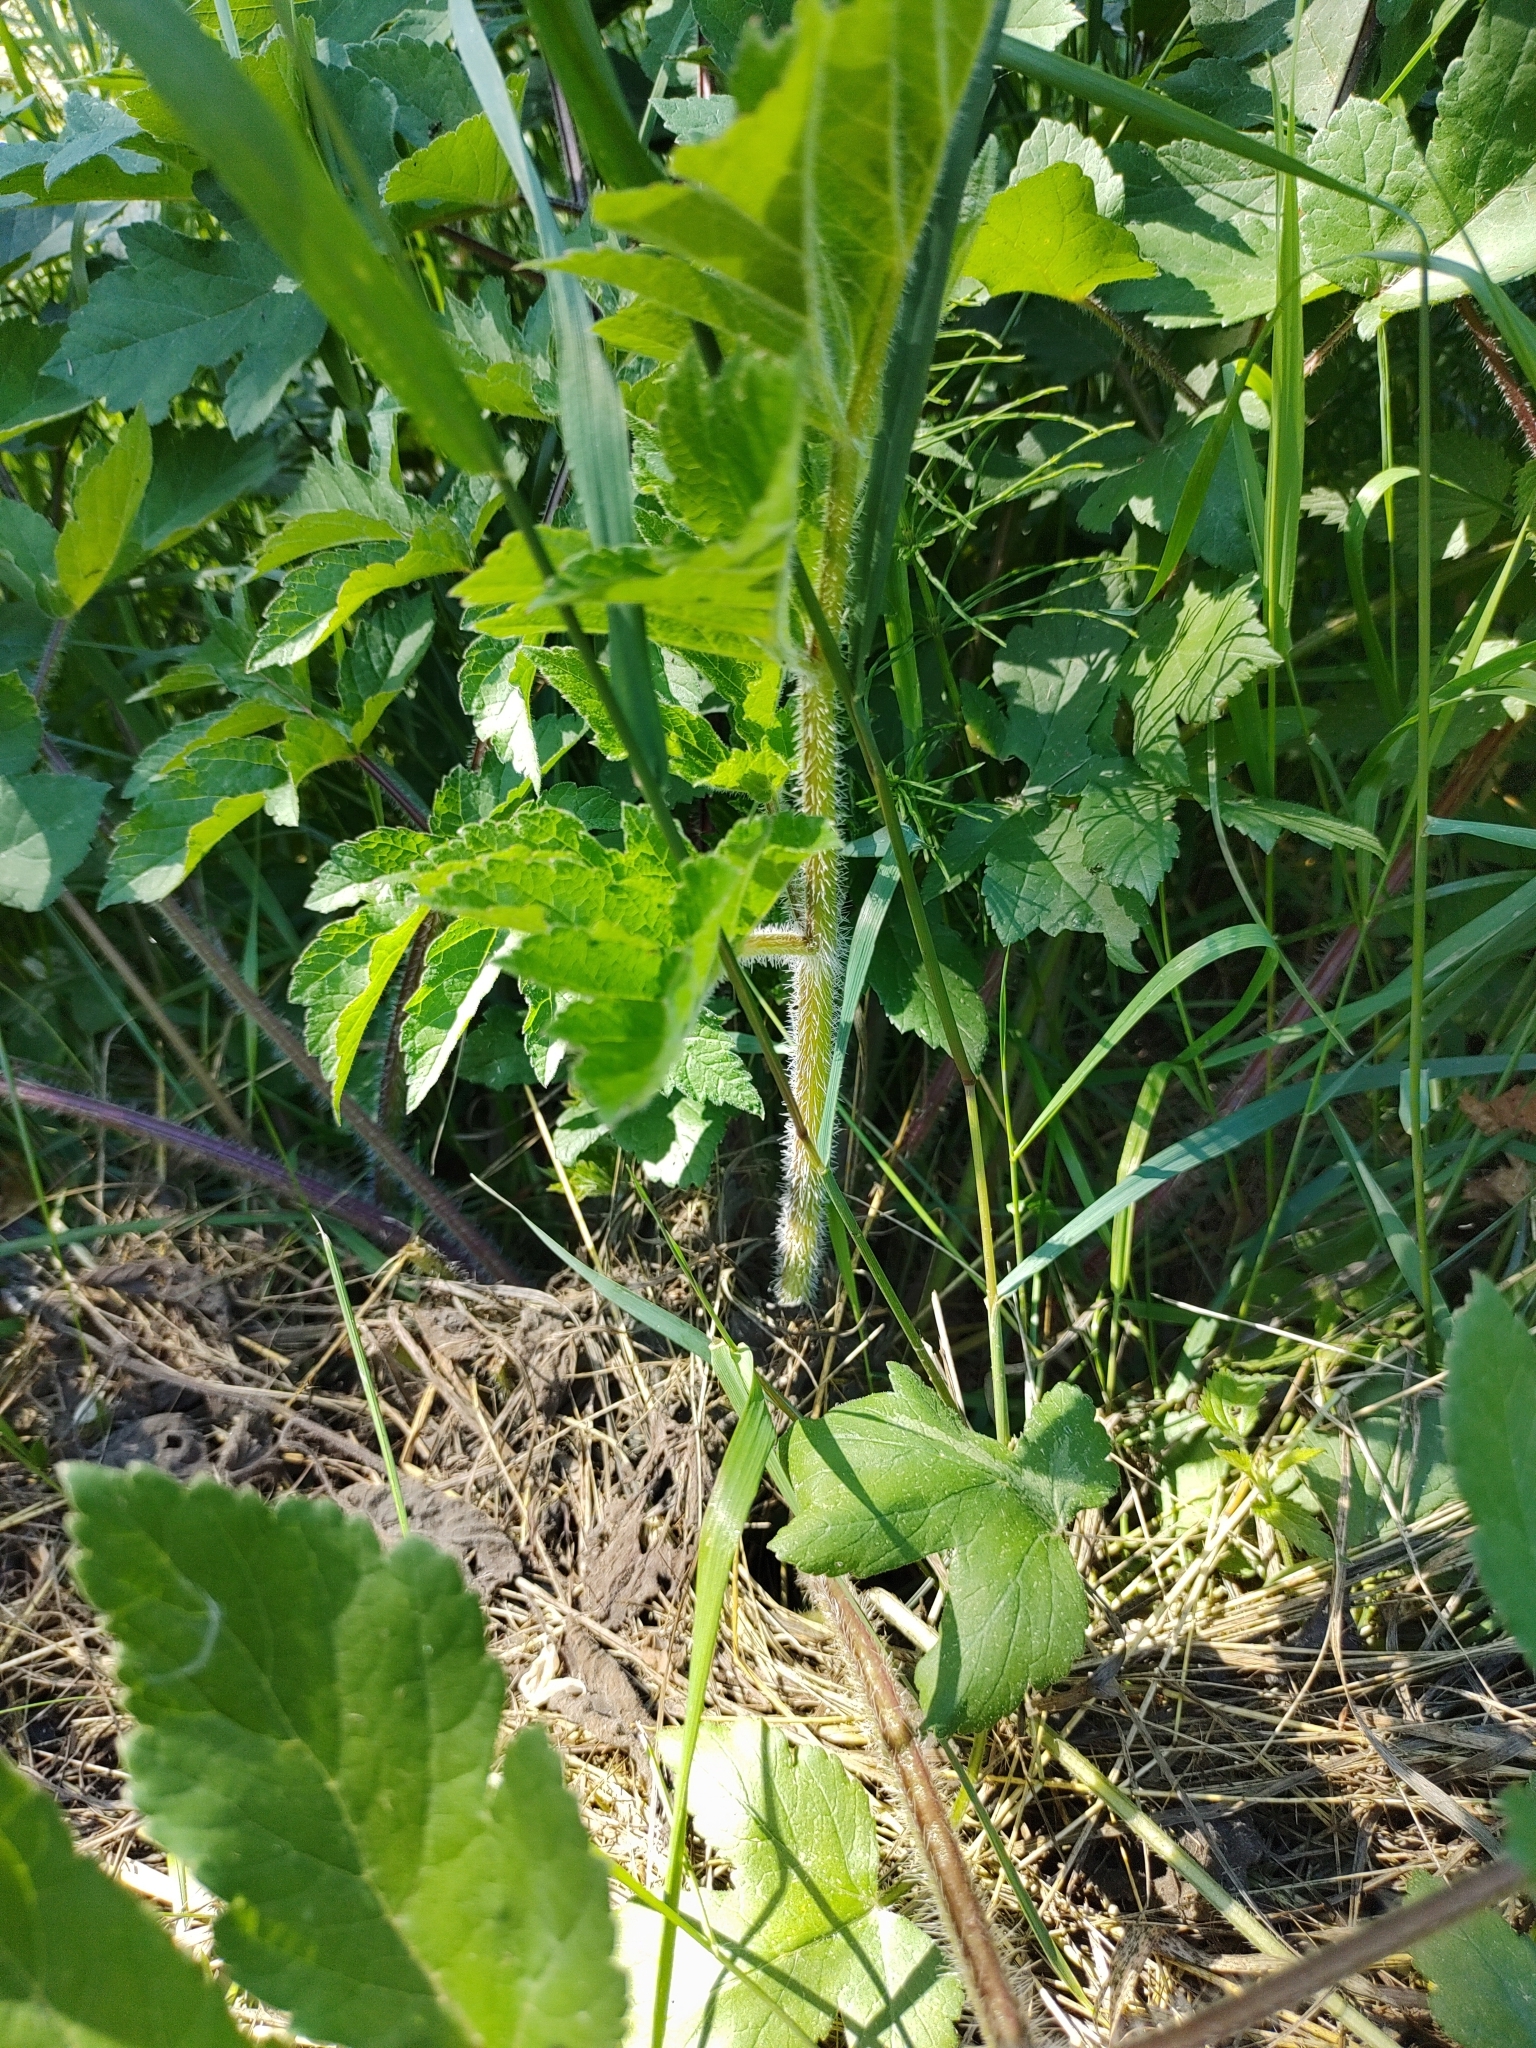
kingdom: Plantae
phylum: Tracheophyta
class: Magnoliopsida
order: Apiales
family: Apiaceae
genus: Heracleum
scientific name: Heracleum sphondylium
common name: Hogweed
